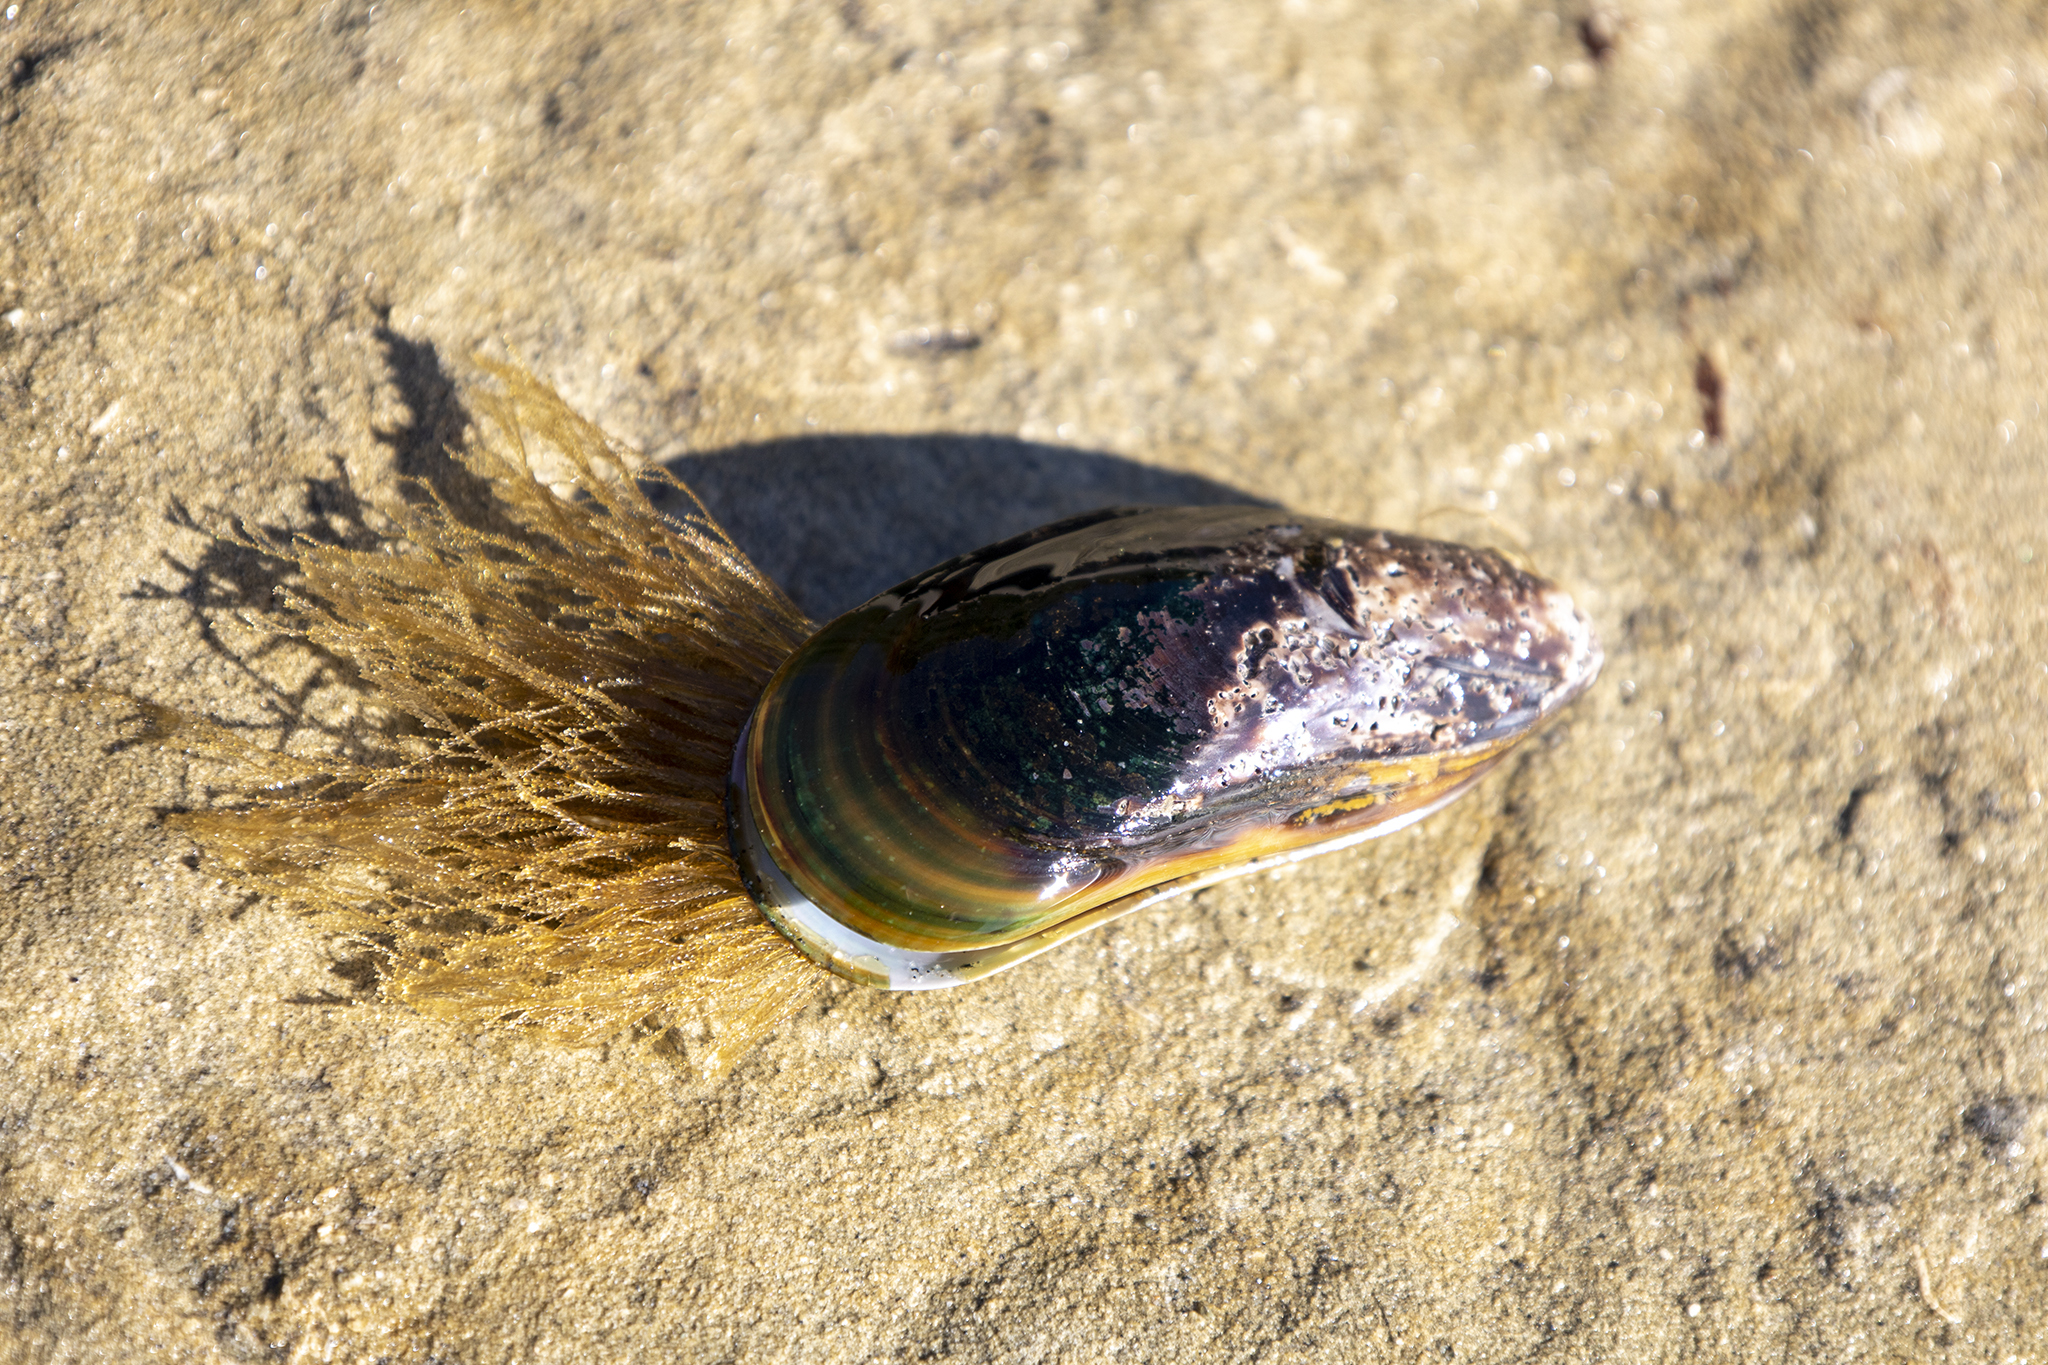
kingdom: Animalia
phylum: Cnidaria
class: Hydrozoa
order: Leptothecata
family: Sertulariidae
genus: Amphisbetia
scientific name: Amphisbetia bispinosa
